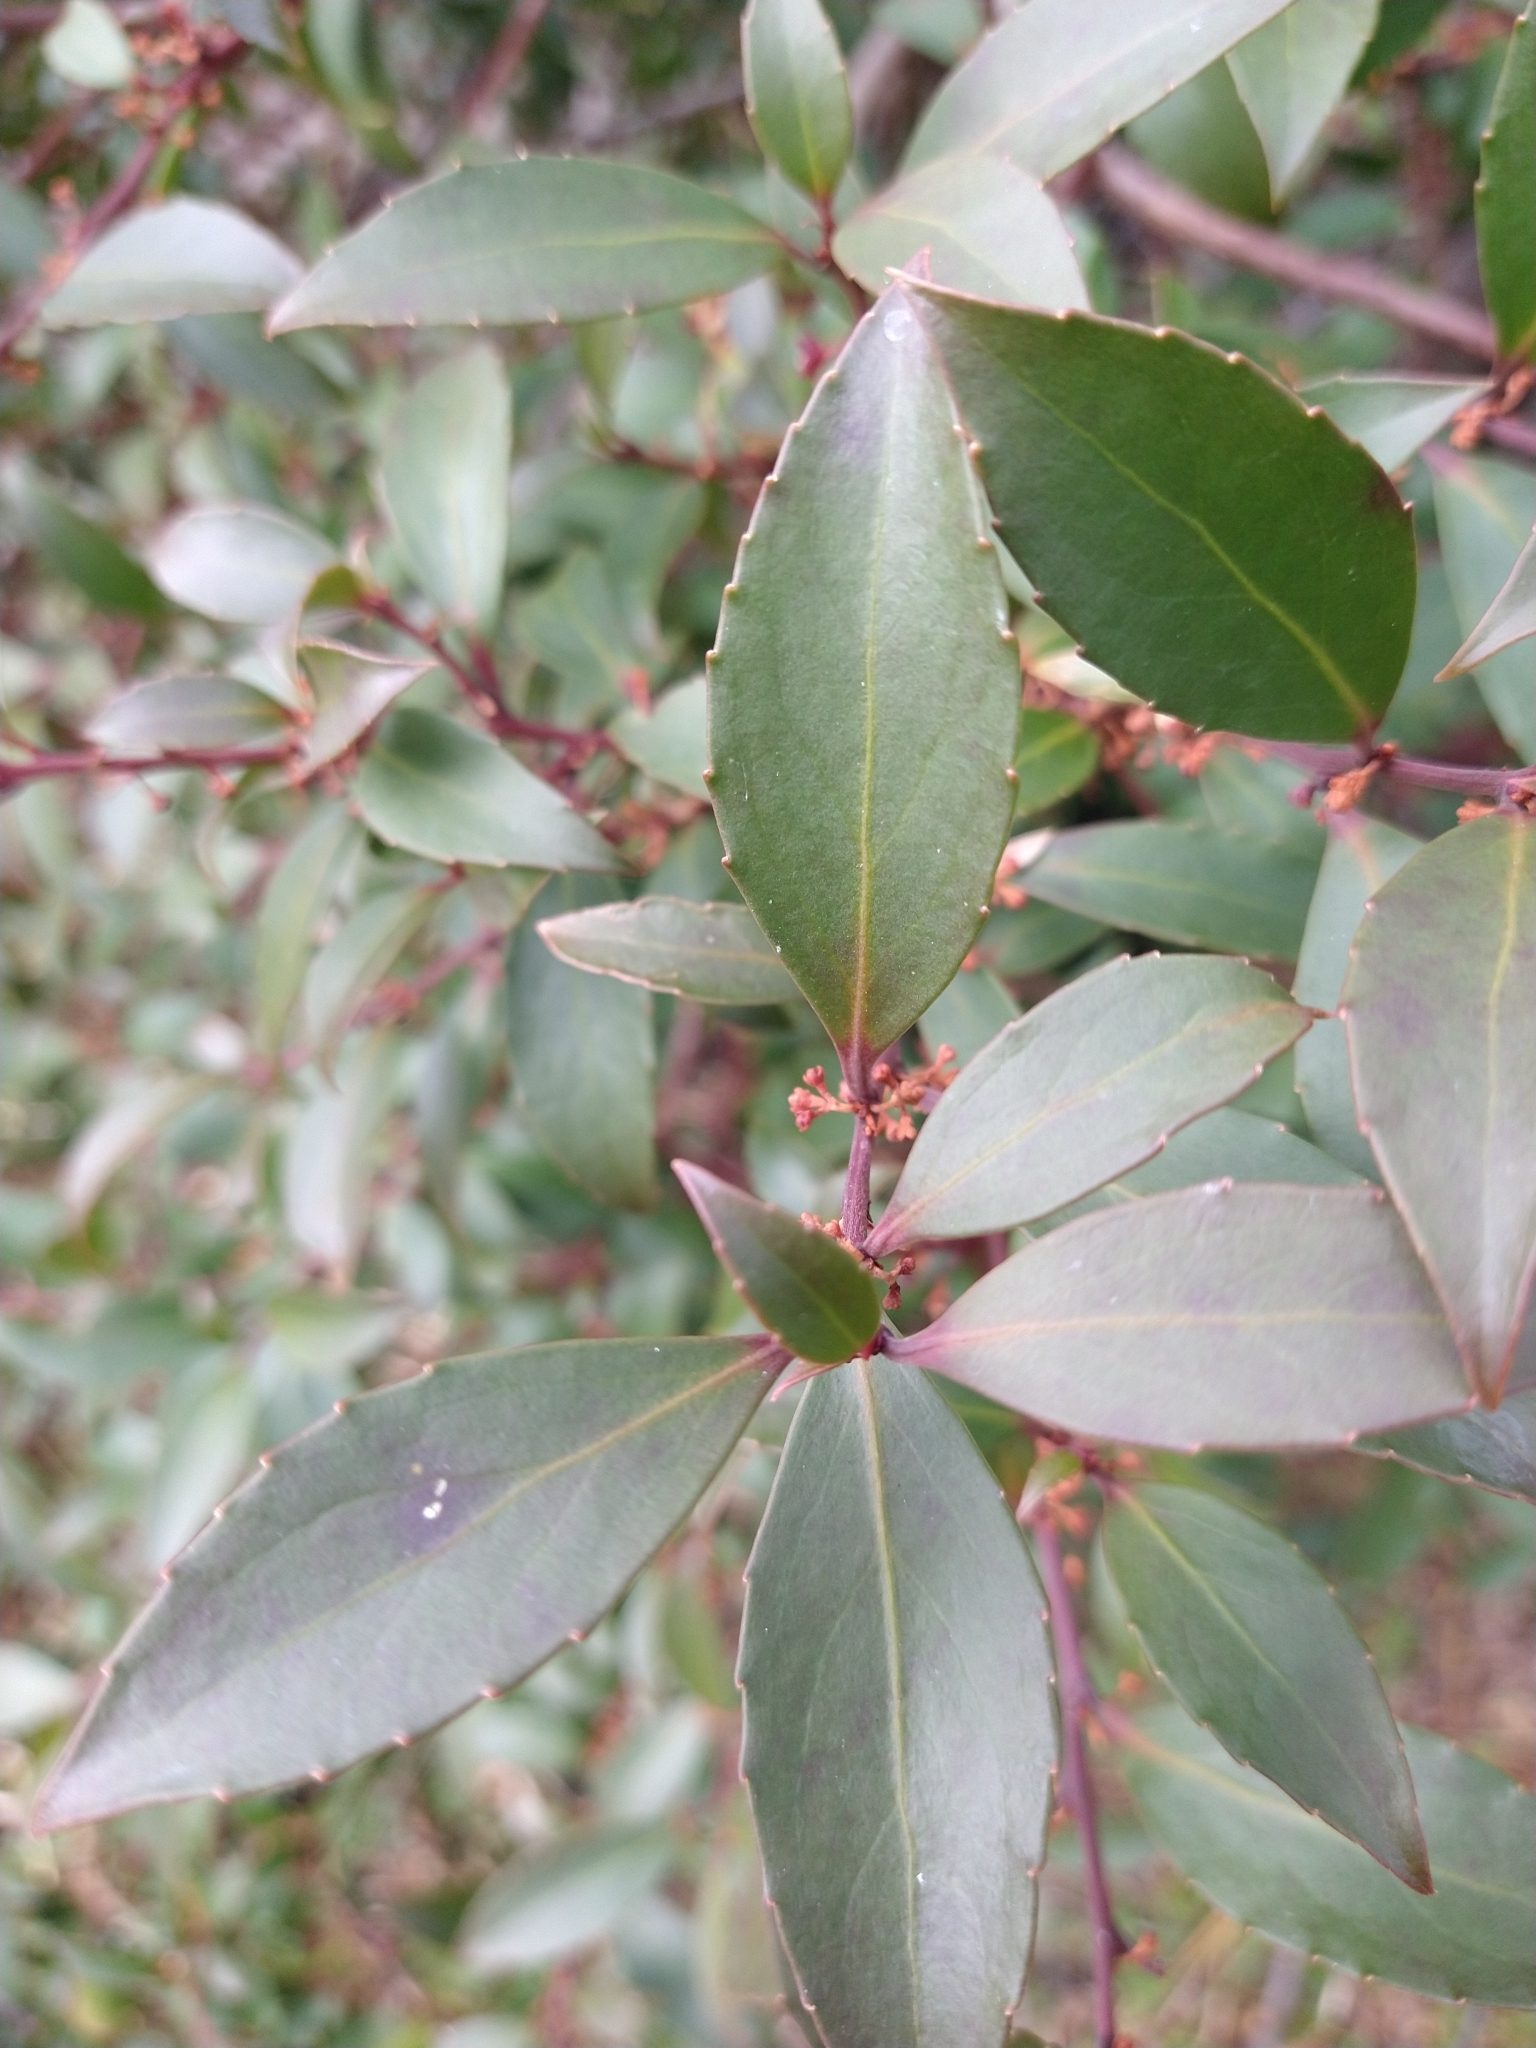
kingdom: Plantae
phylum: Tracheophyta
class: Magnoliopsida
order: Celastrales
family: Celastraceae
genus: Maytenus
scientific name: Maytenus magellanica
